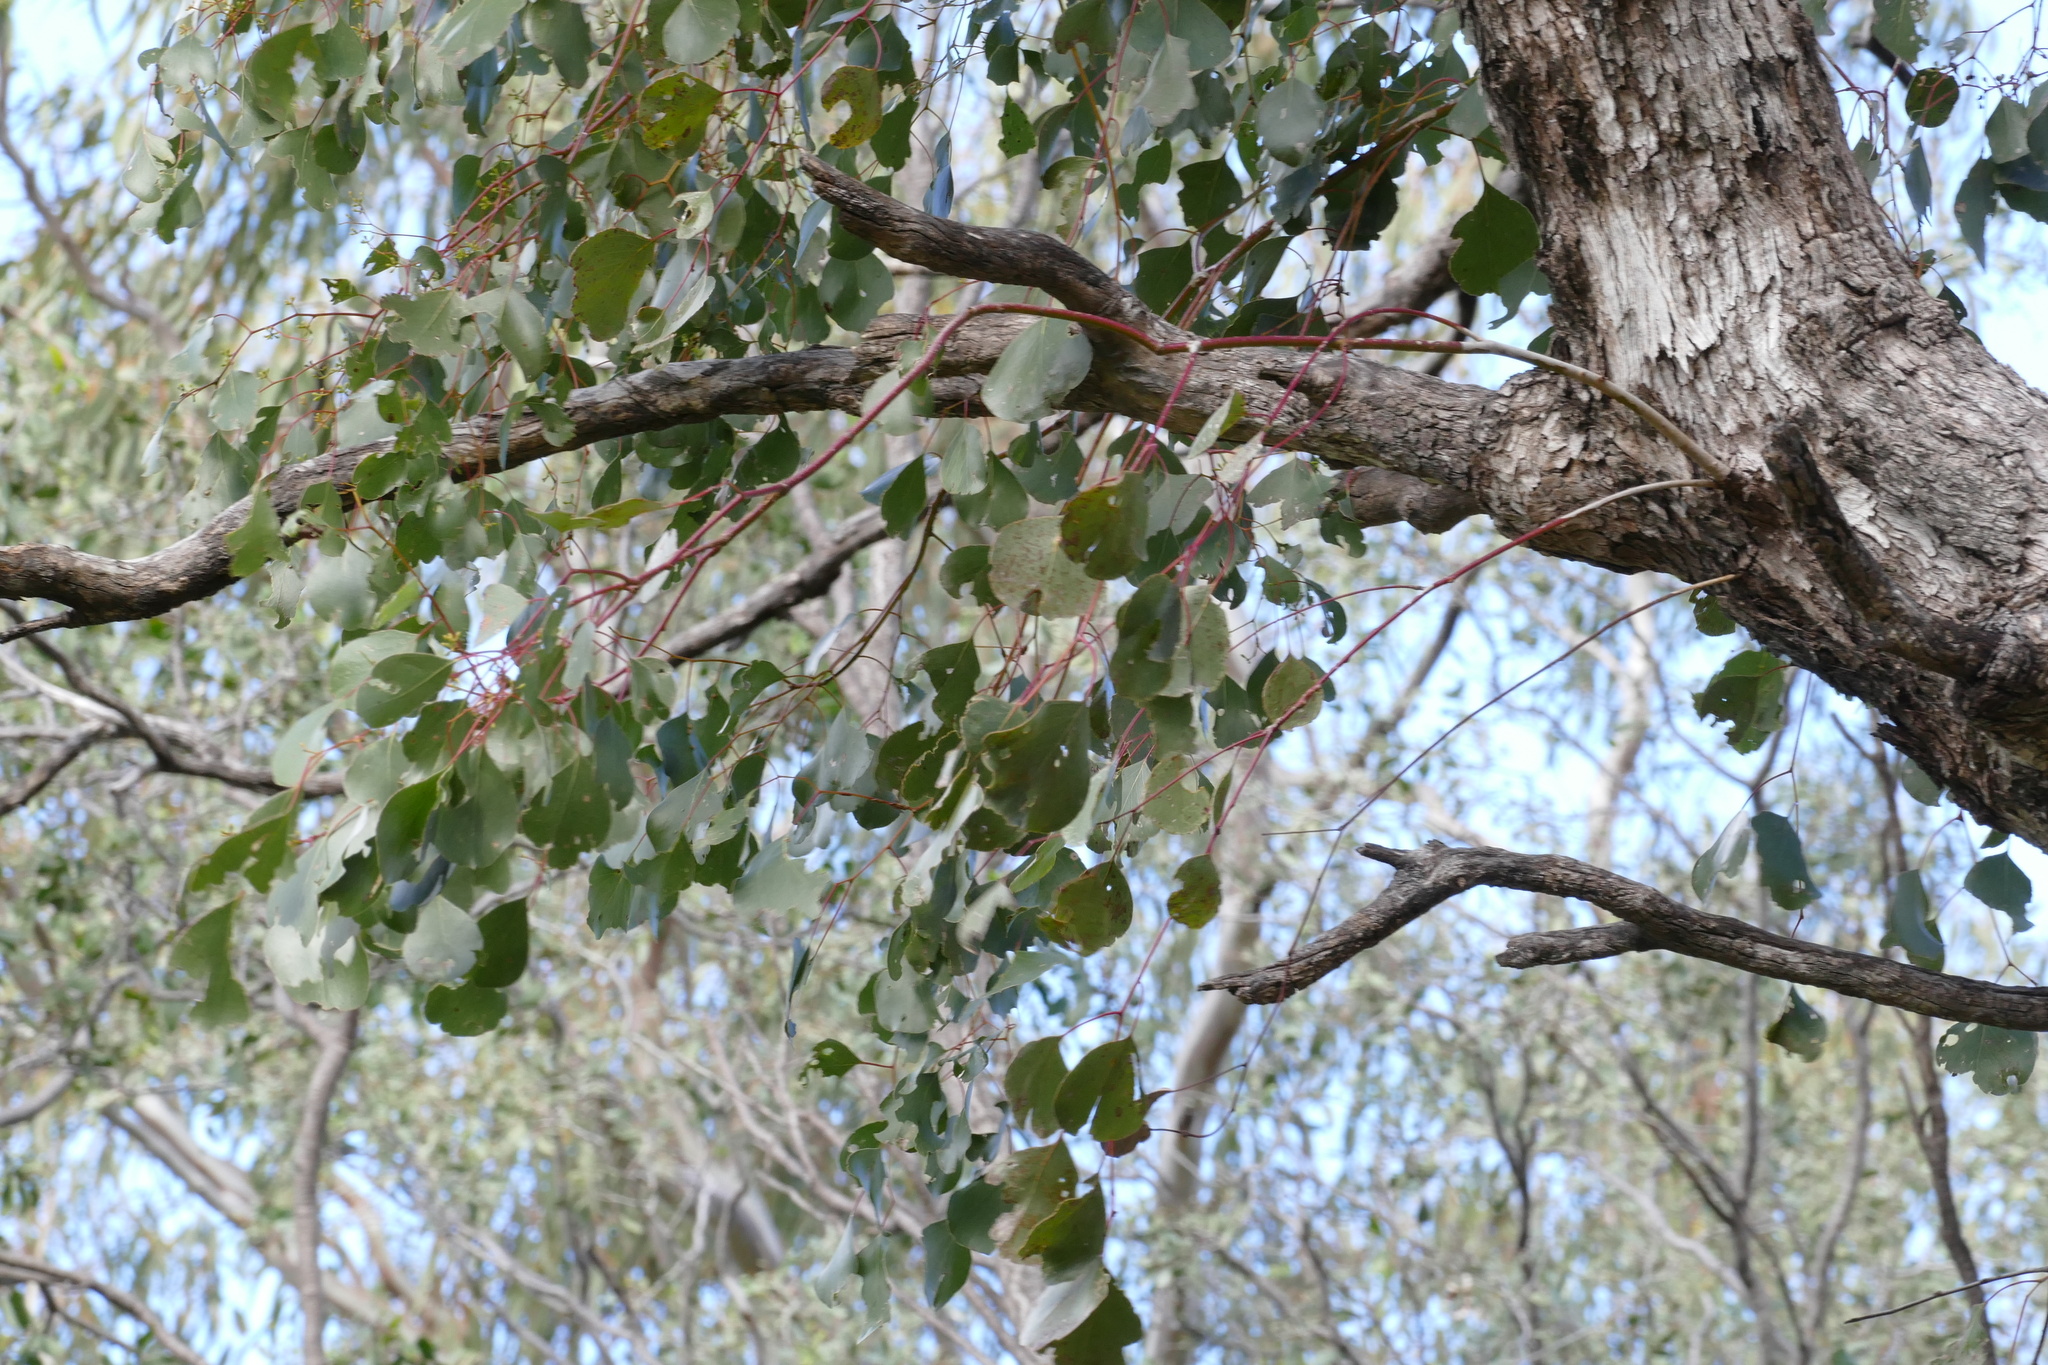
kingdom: Plantae
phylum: Tracheophyta
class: Magnoliopsida
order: Myrtales
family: Myrtaceae
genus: Eucalyptus
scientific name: Eucalyptus populnea
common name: Bimble box
